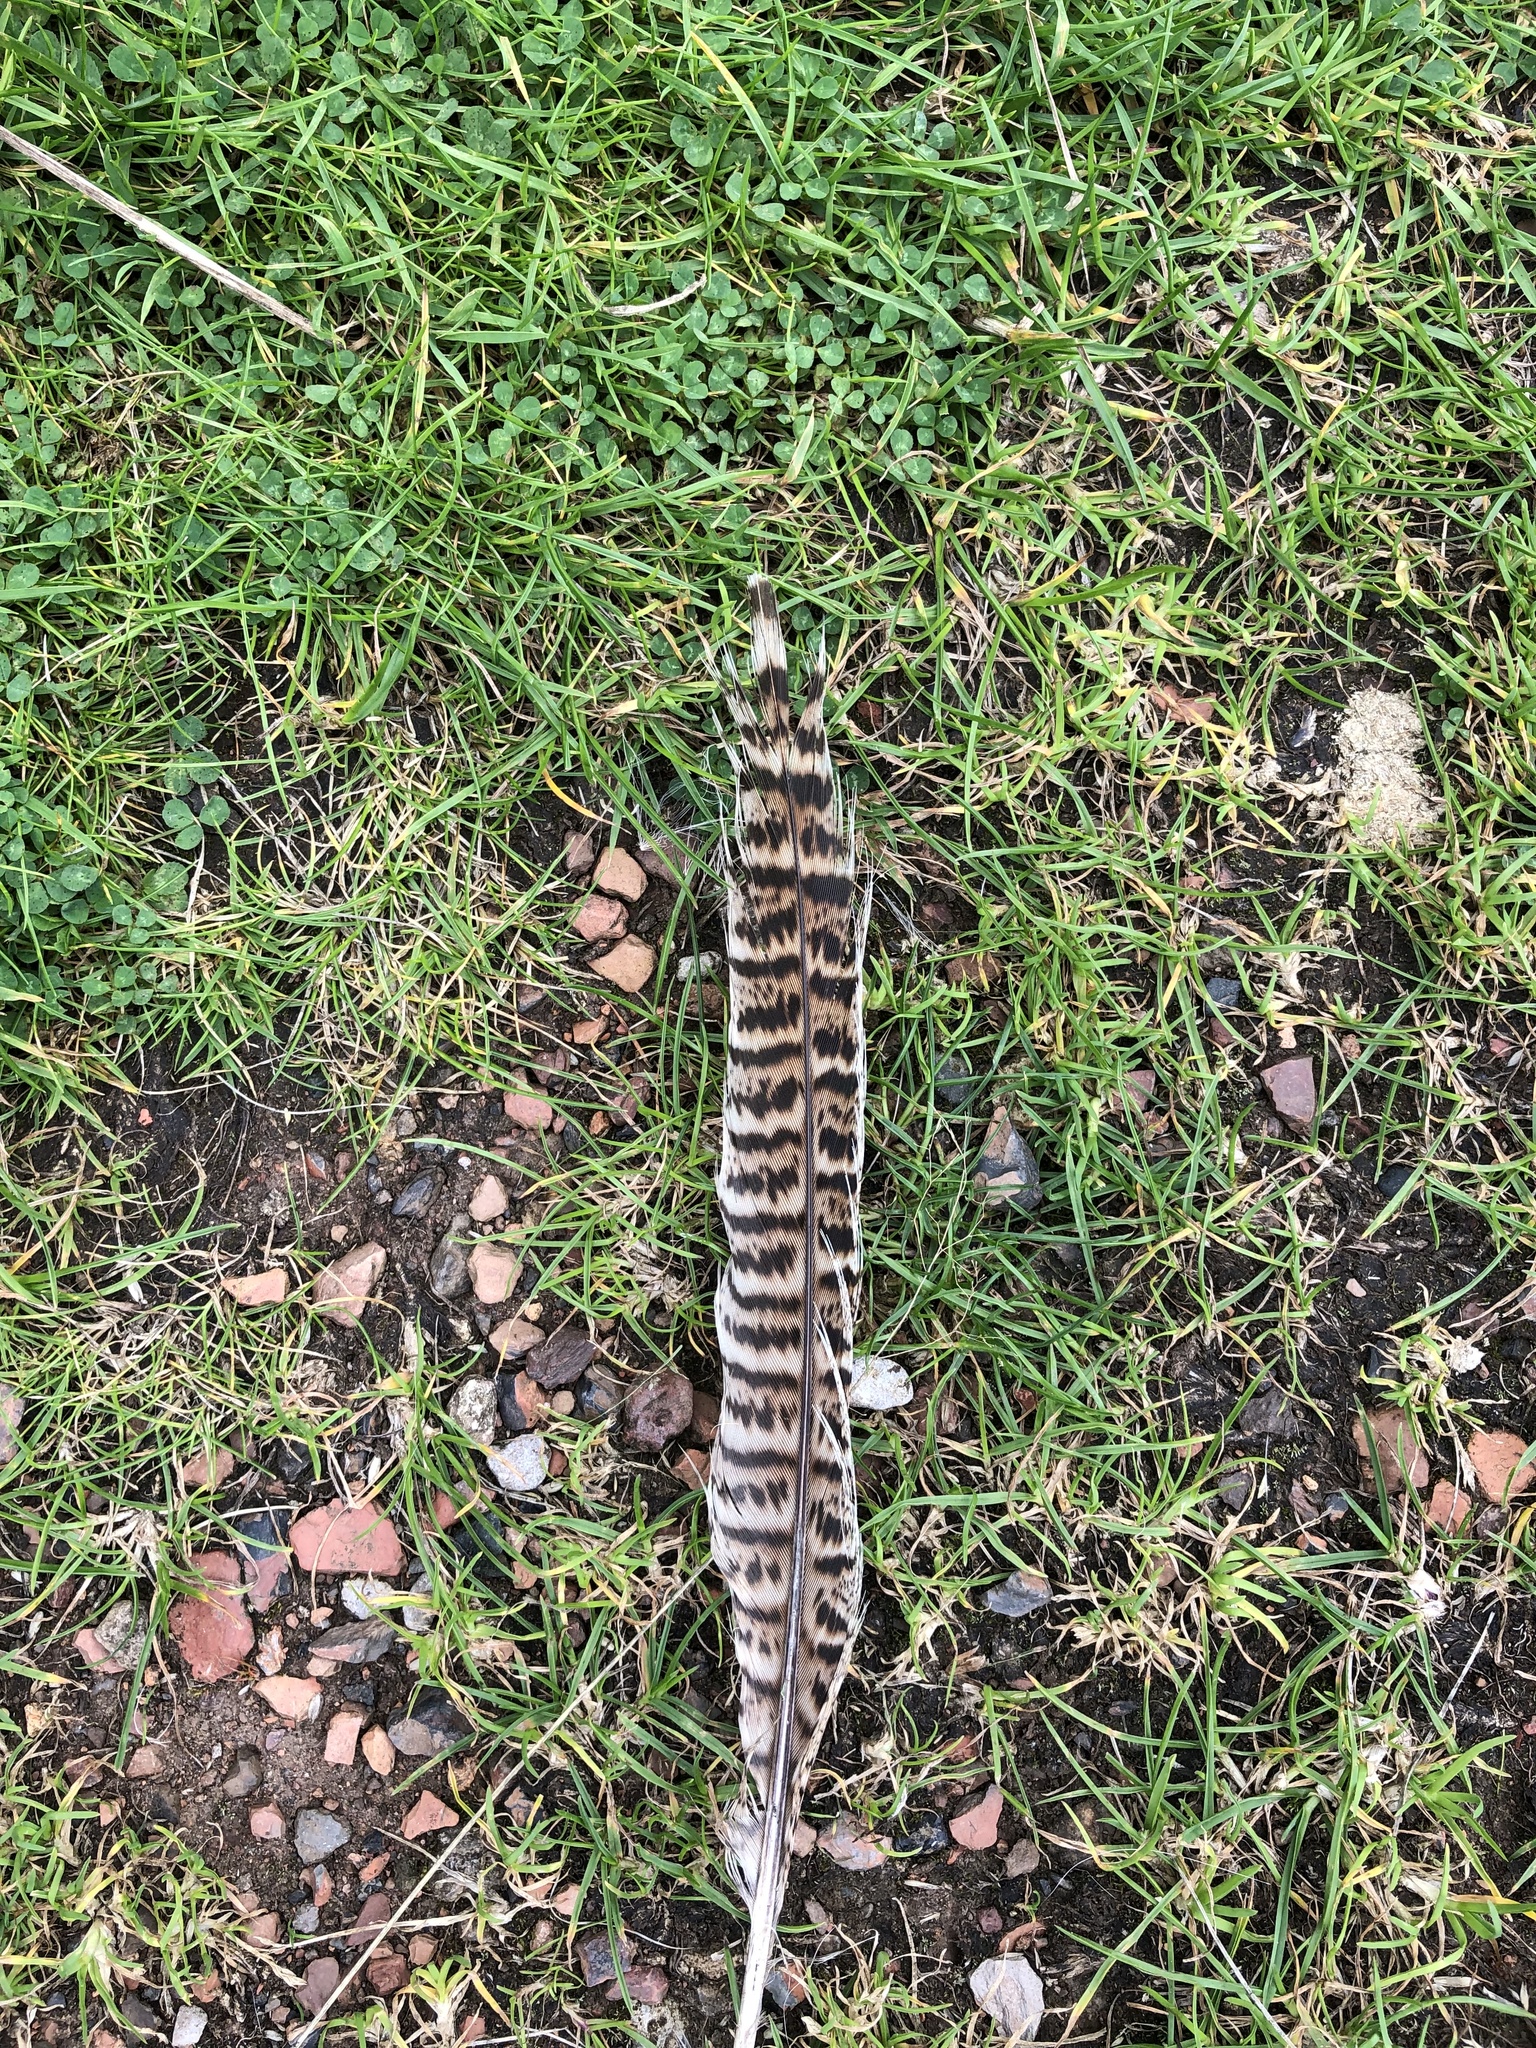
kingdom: Animalia
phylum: Chordata
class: Aves
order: Galliformes
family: Phasianidae
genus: Phasianus
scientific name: Phasianus colchicus
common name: Common pheasant
